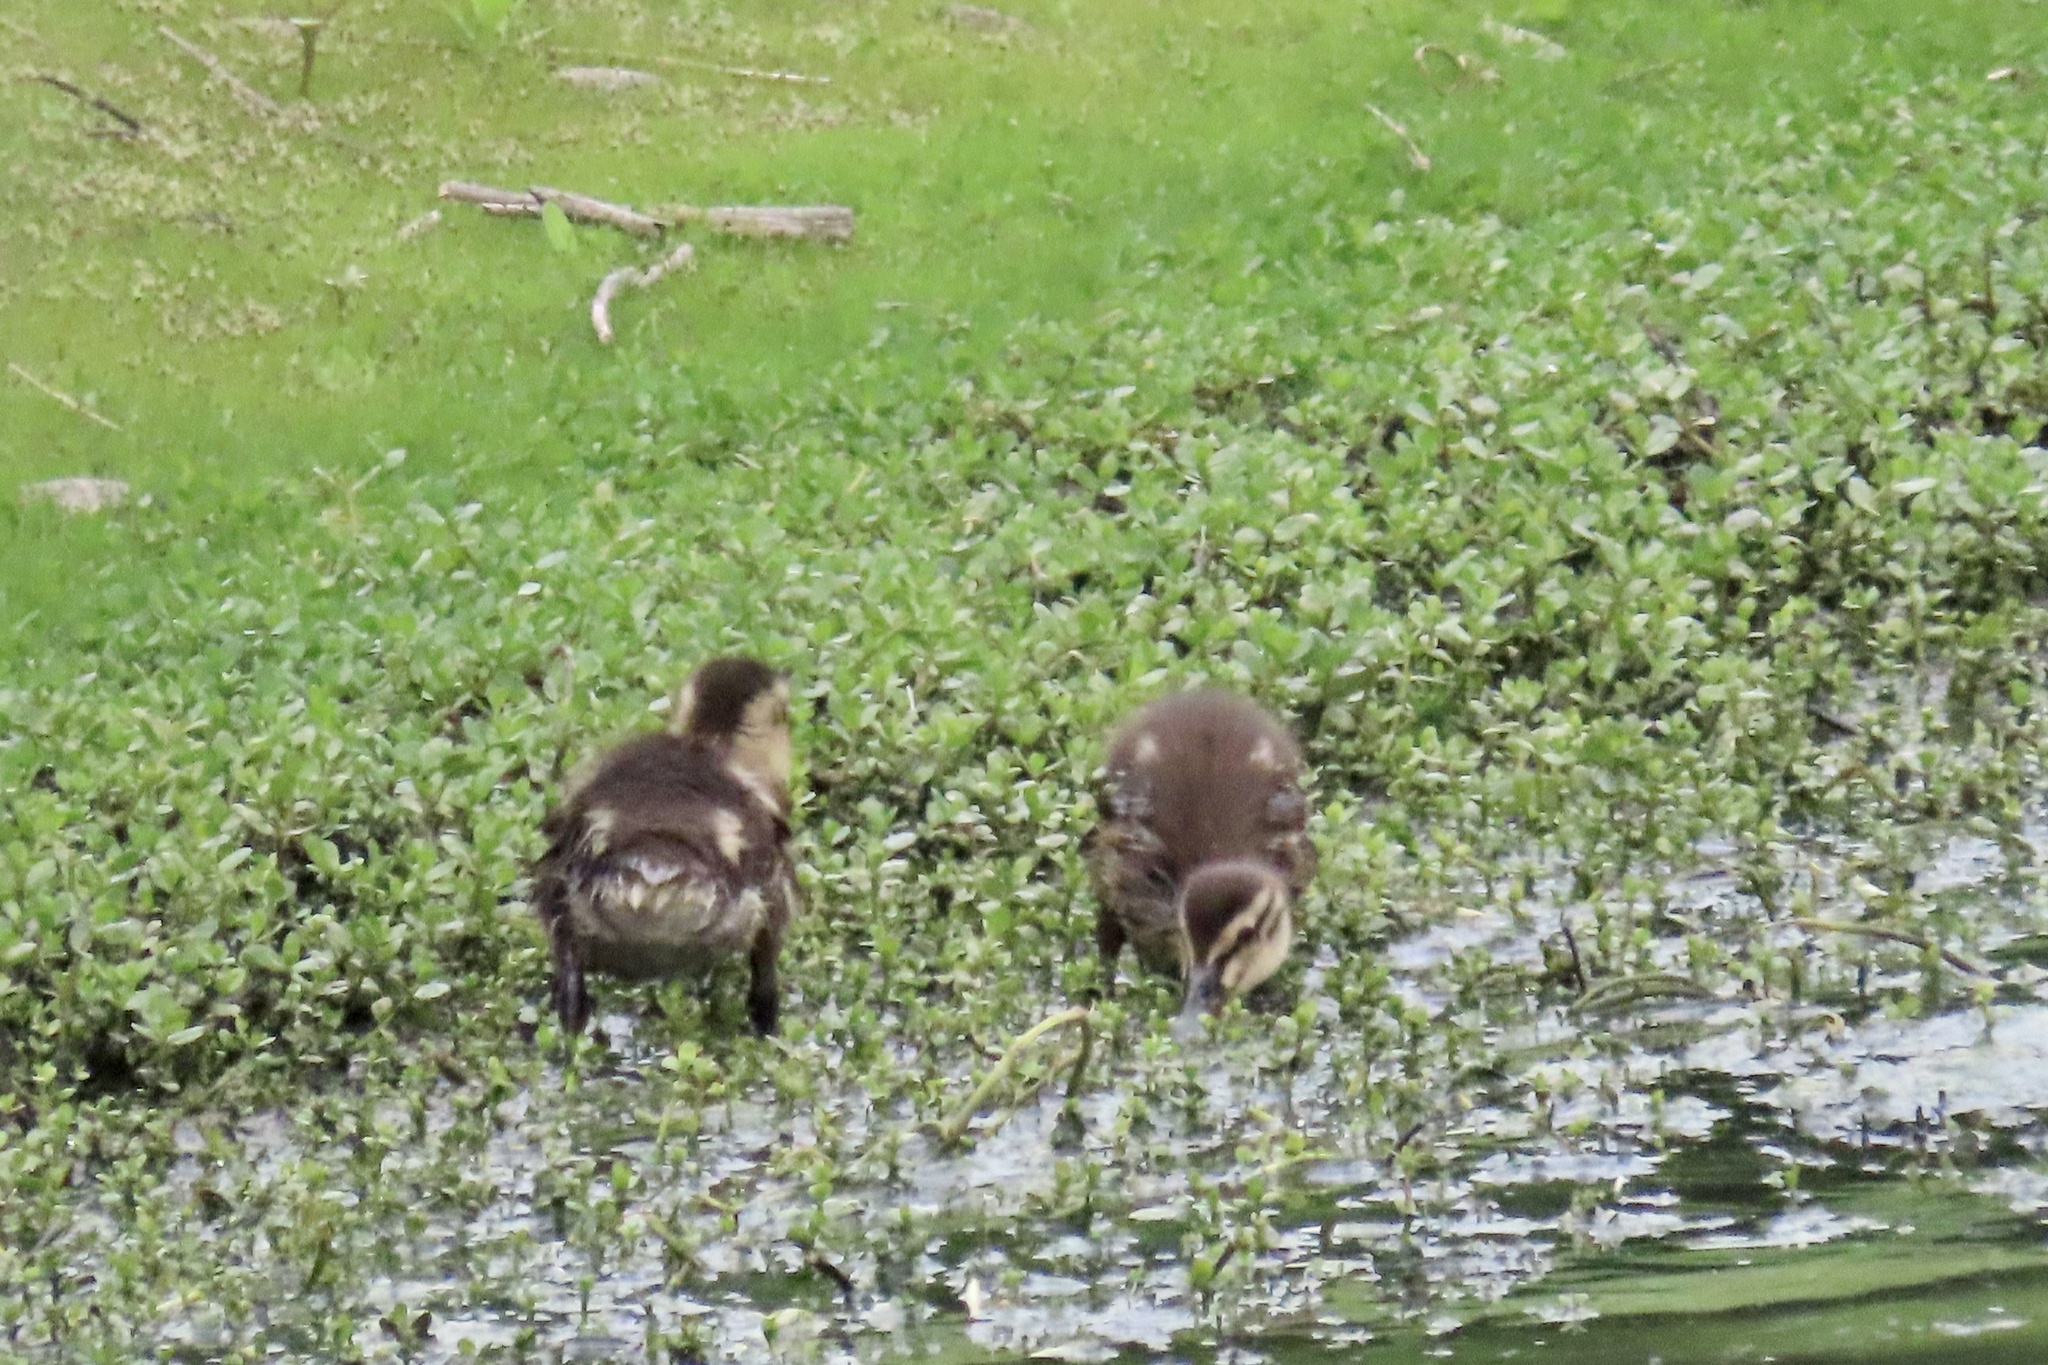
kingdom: Animalia
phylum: Chordata
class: Aves
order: Anseriformes
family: Anatidae
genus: Anas
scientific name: Anas platyrhynchos
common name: Mallard
